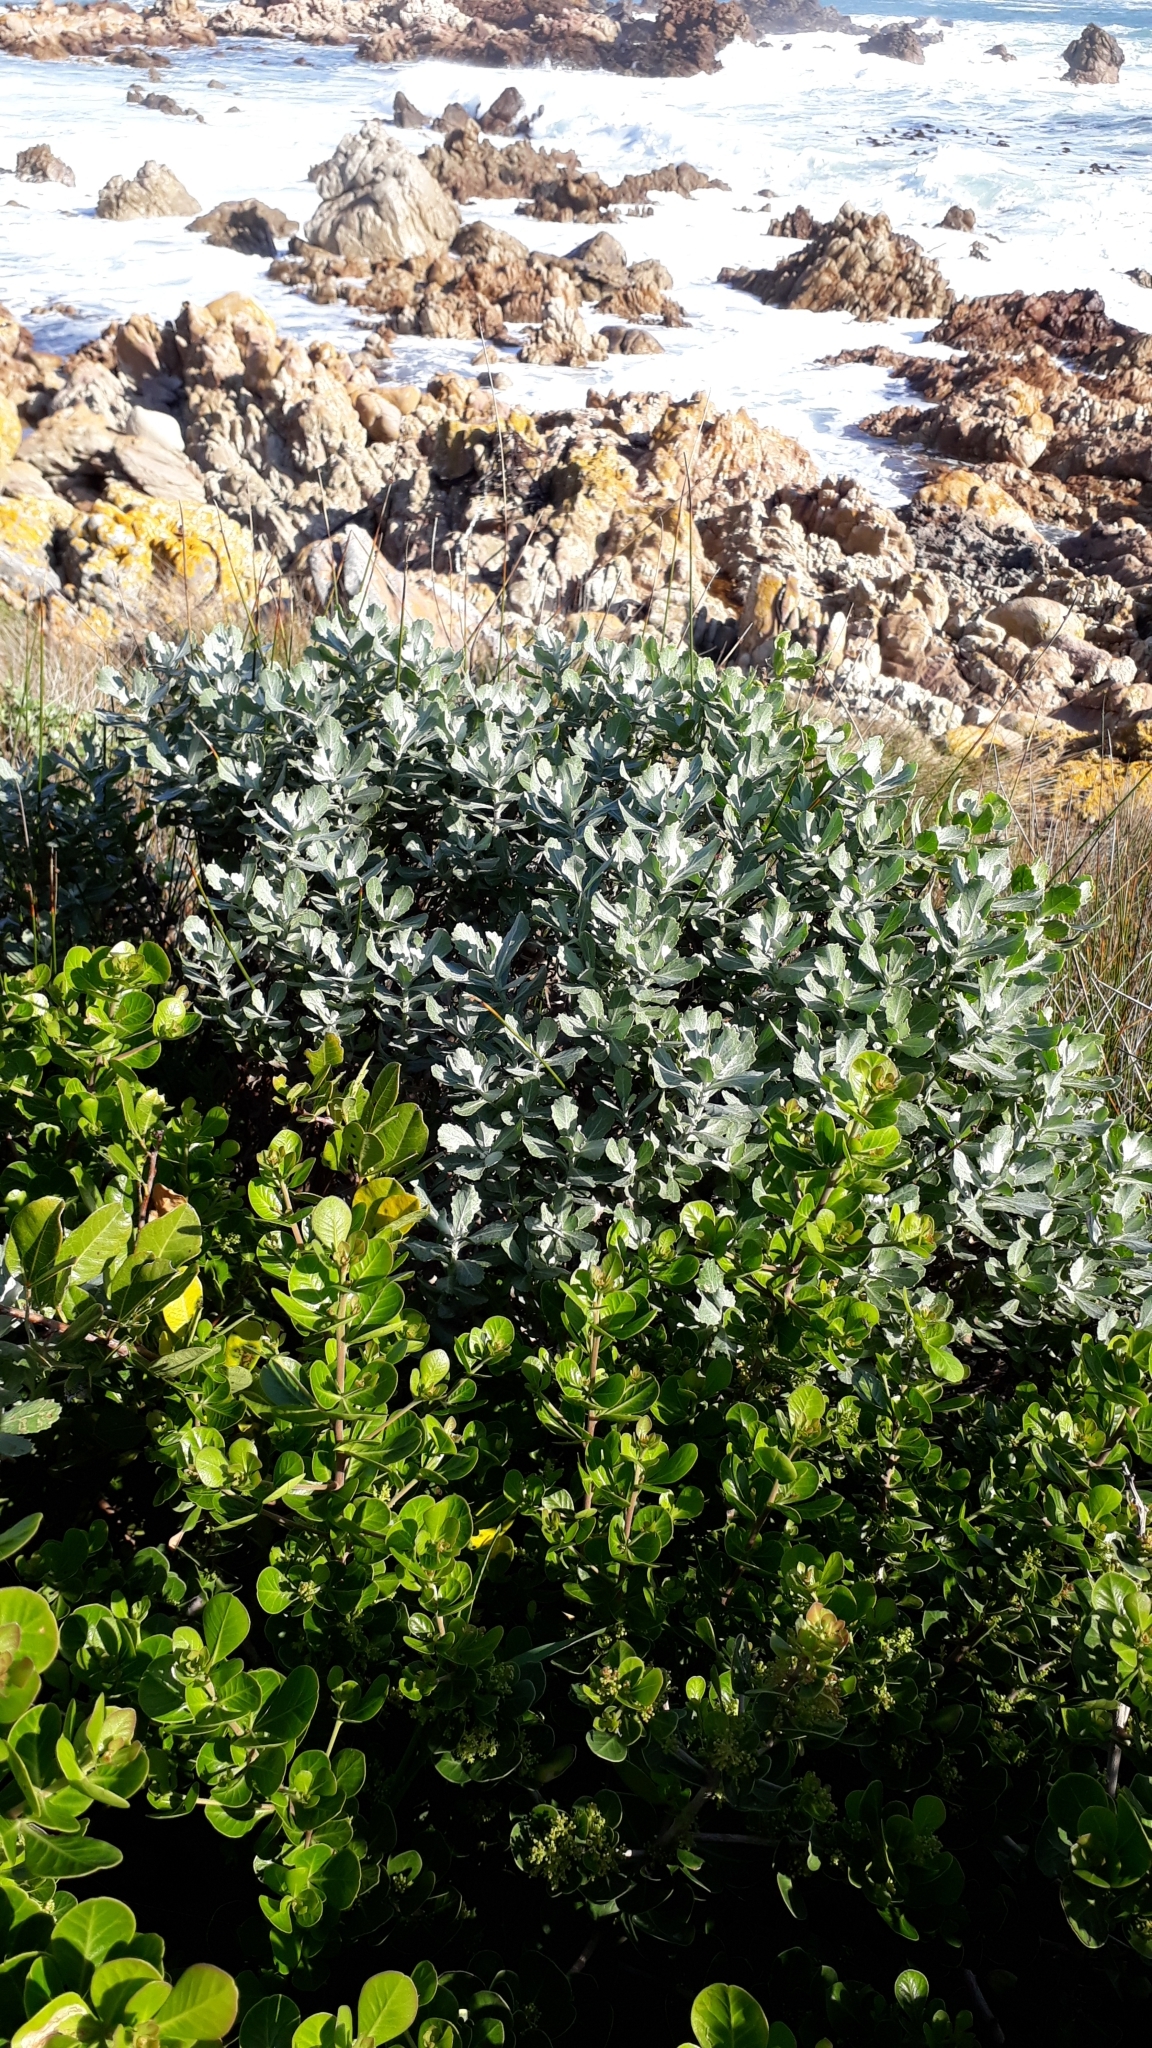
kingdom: Plantae
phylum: Tracheophyta
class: Magnoliopsida
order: Asterales
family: Asteraceae
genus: Senecio
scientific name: Senecio halimifolius
